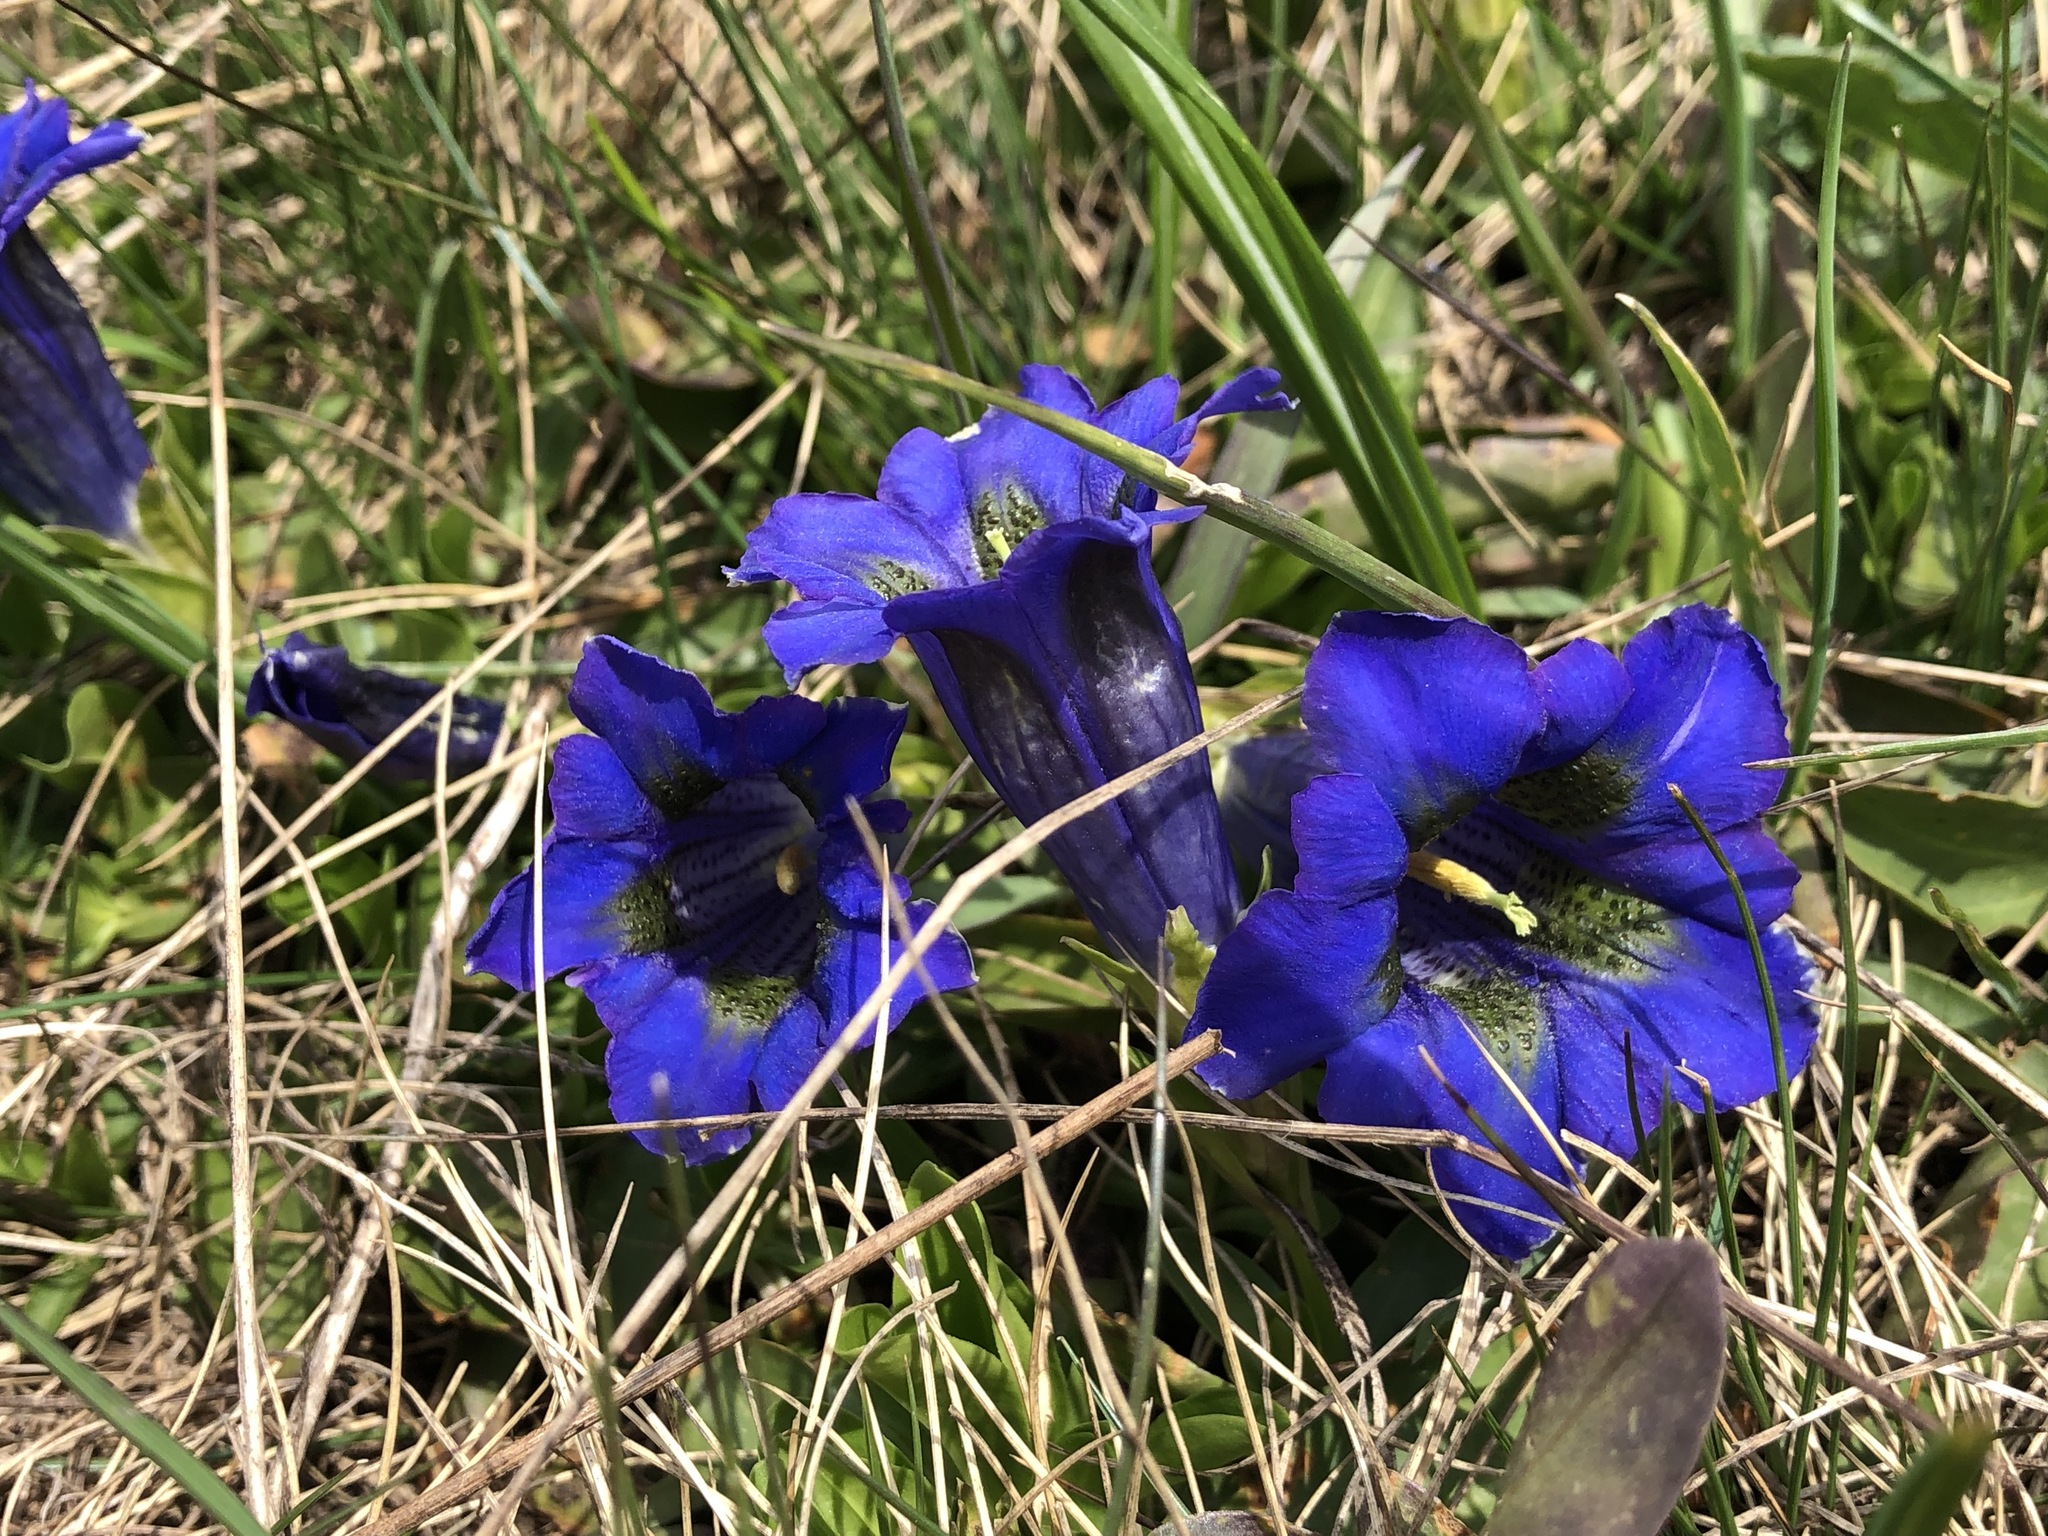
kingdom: Plantae
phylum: Tracheophyta
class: Magnoliopsida
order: Gentianales
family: Gentianaceae
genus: Gentiana
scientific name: Gentiana acaulis
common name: Trumpet gentian
